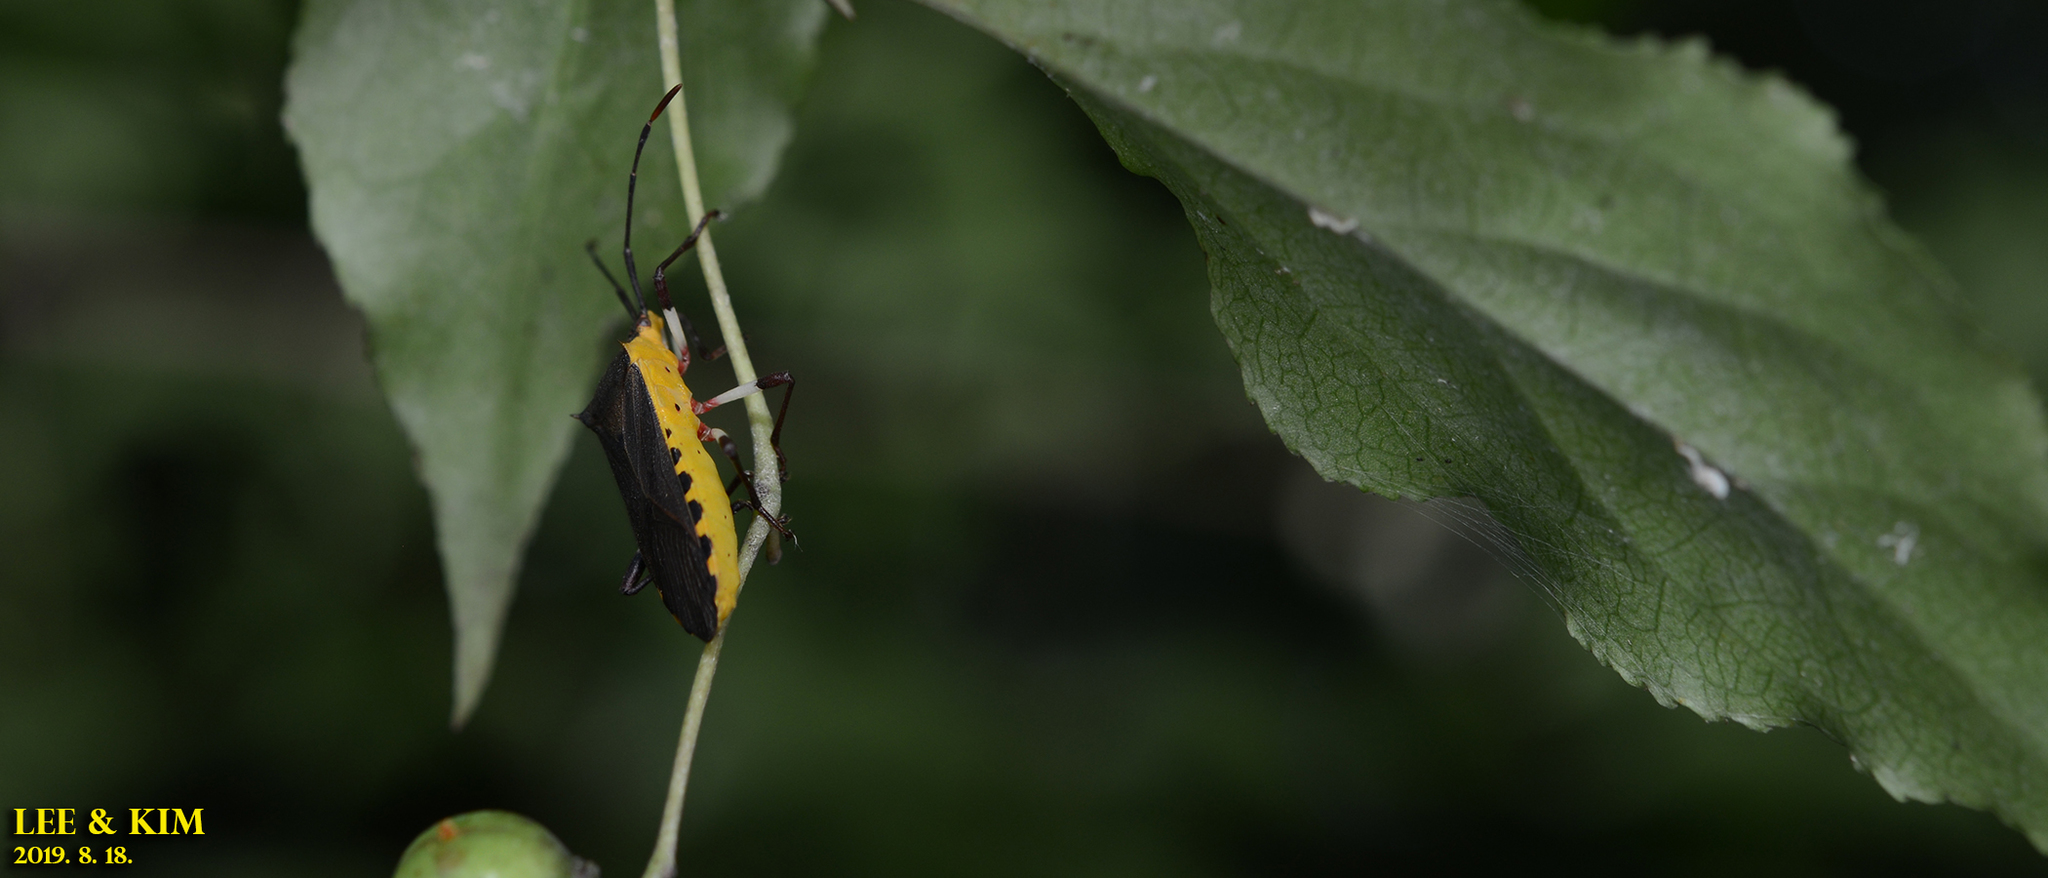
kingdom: Animalia
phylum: Arthropoda
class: Insecta
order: Hemiptera
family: Coreidae
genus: Plinachtus
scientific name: Plinachtus bicoloripes
